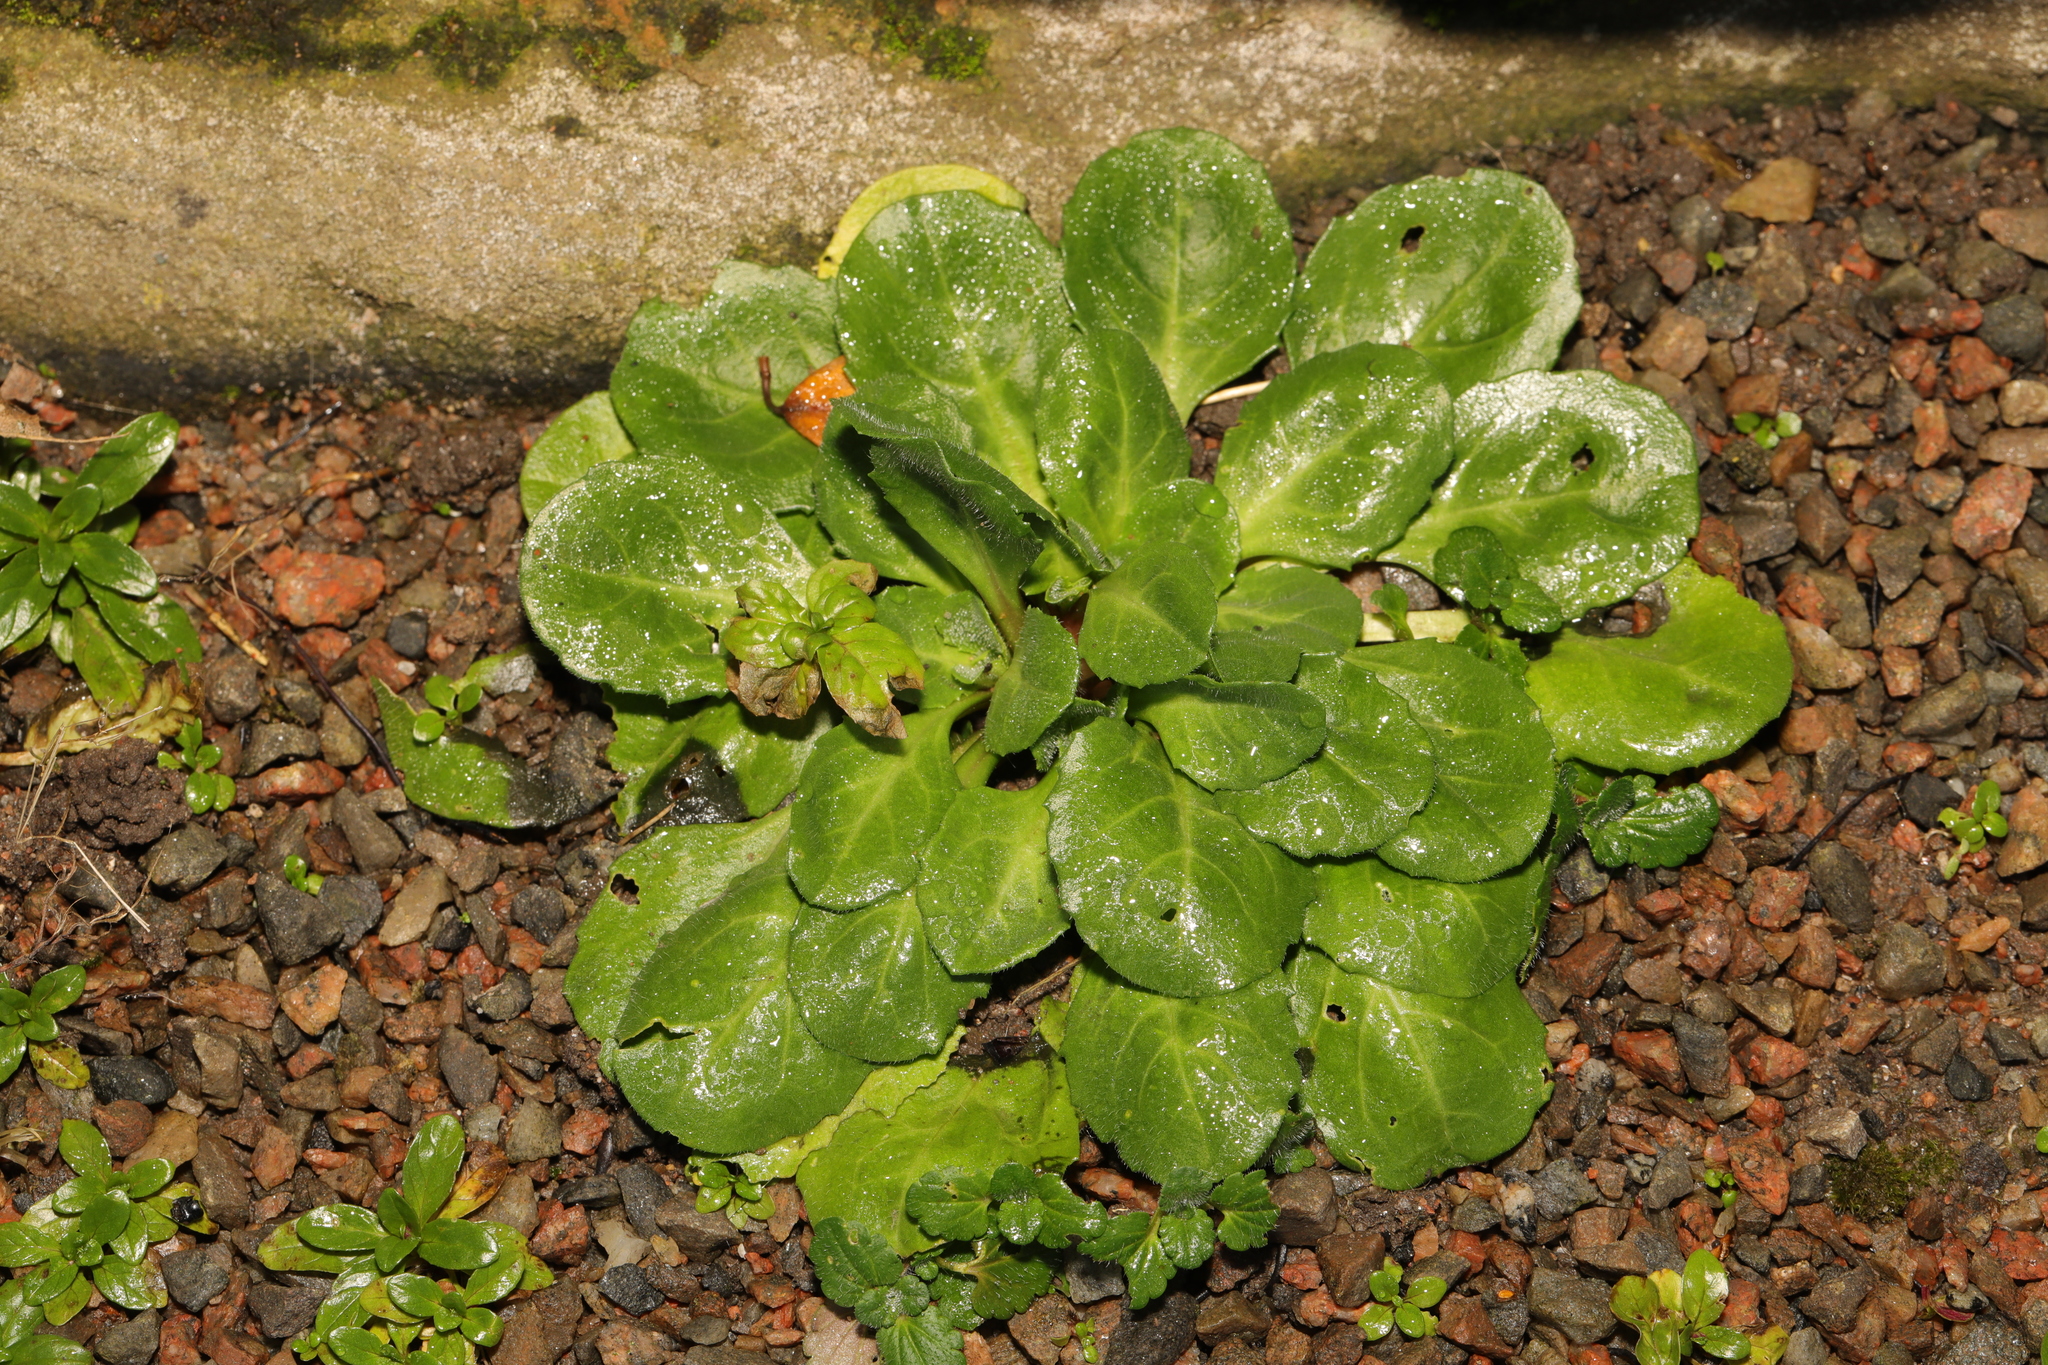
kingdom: Plantae
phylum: Tracheophyta
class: Magnoliopsida
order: Asterales
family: Asteraceae
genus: Bellis
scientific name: Bellis perennis
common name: Lawndaisy
